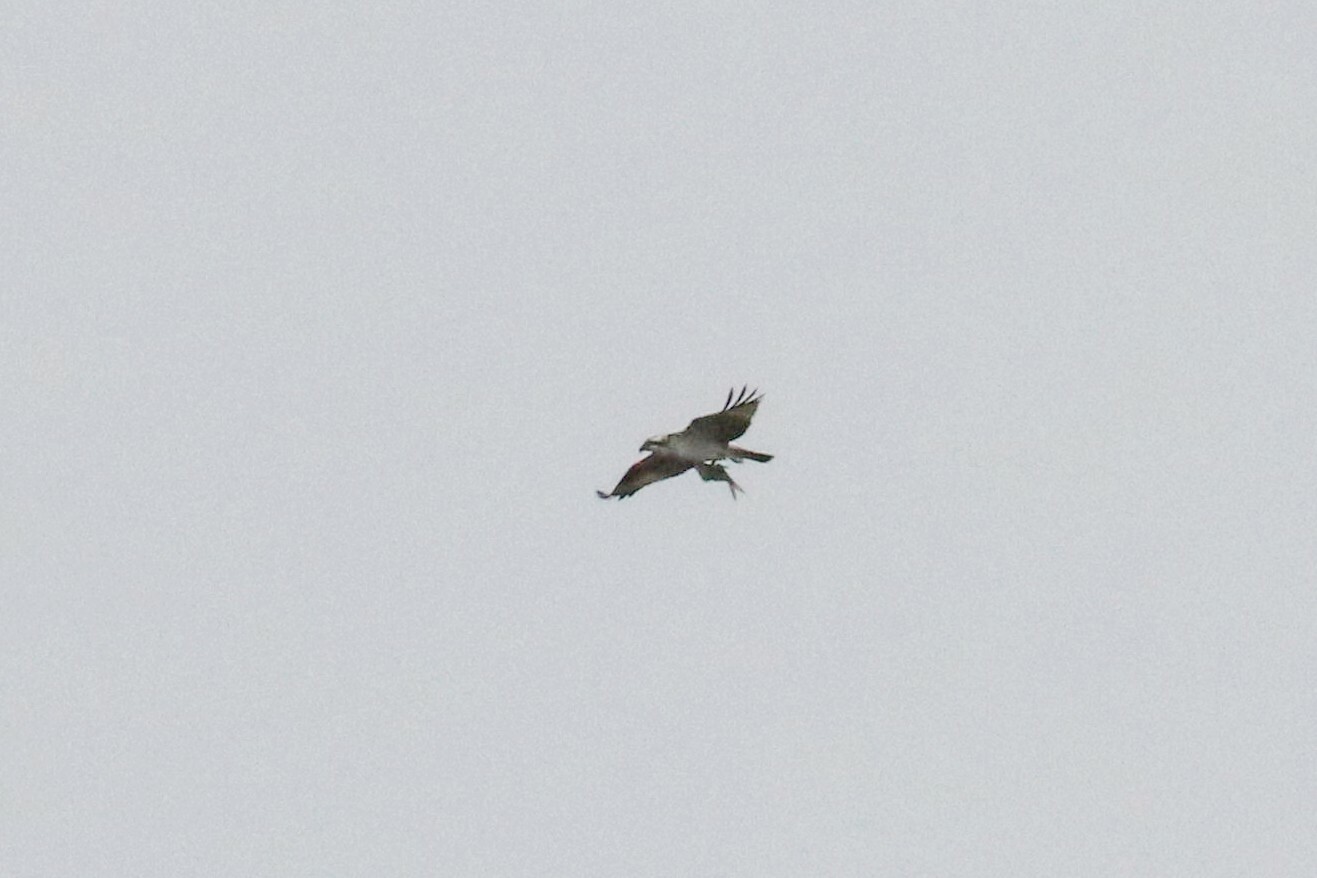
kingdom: Animalia
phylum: Chordata
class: Aves
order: Accipitriformes
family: Pandionidae
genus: Pandion
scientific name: Pandion haliaetus
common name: Osprey
